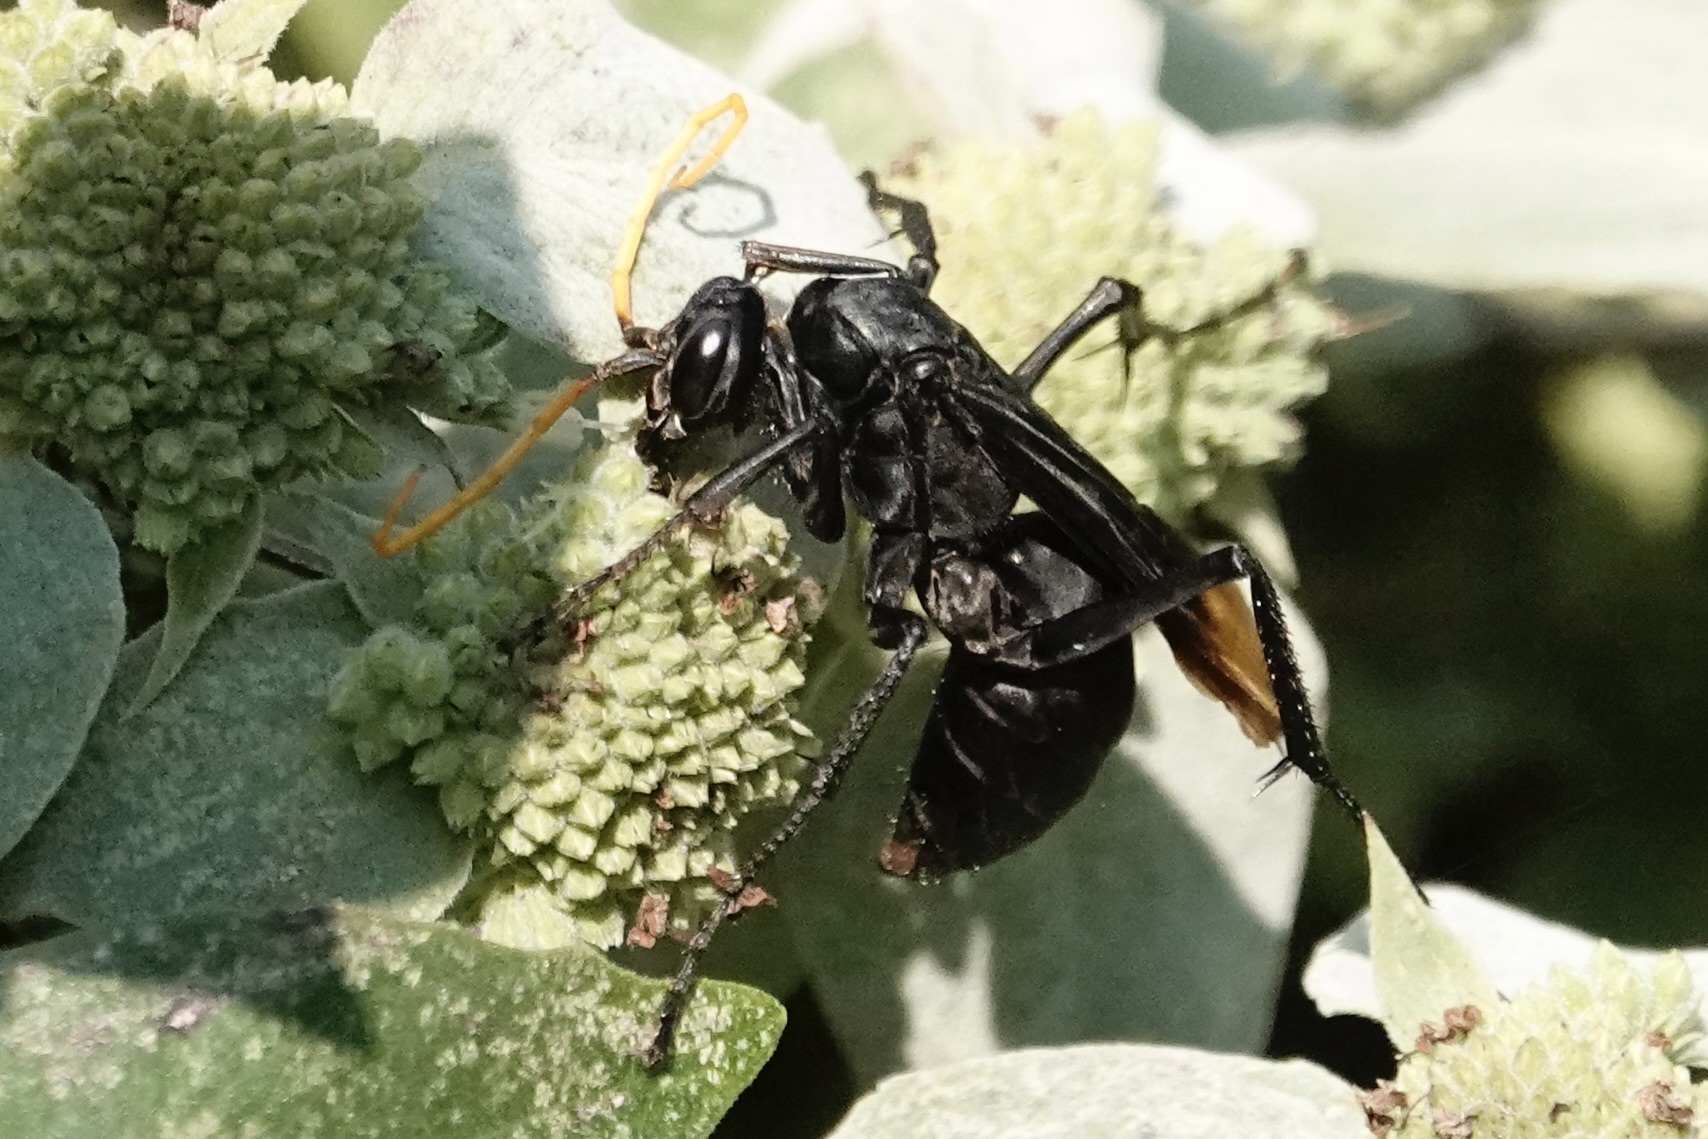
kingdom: Animalia
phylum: Arthropoda
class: Insecta
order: Hymenoptera
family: Pompilidae
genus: Entypus
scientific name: Entypus unifasciatus
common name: Eastern tawny-horned spider wasp
